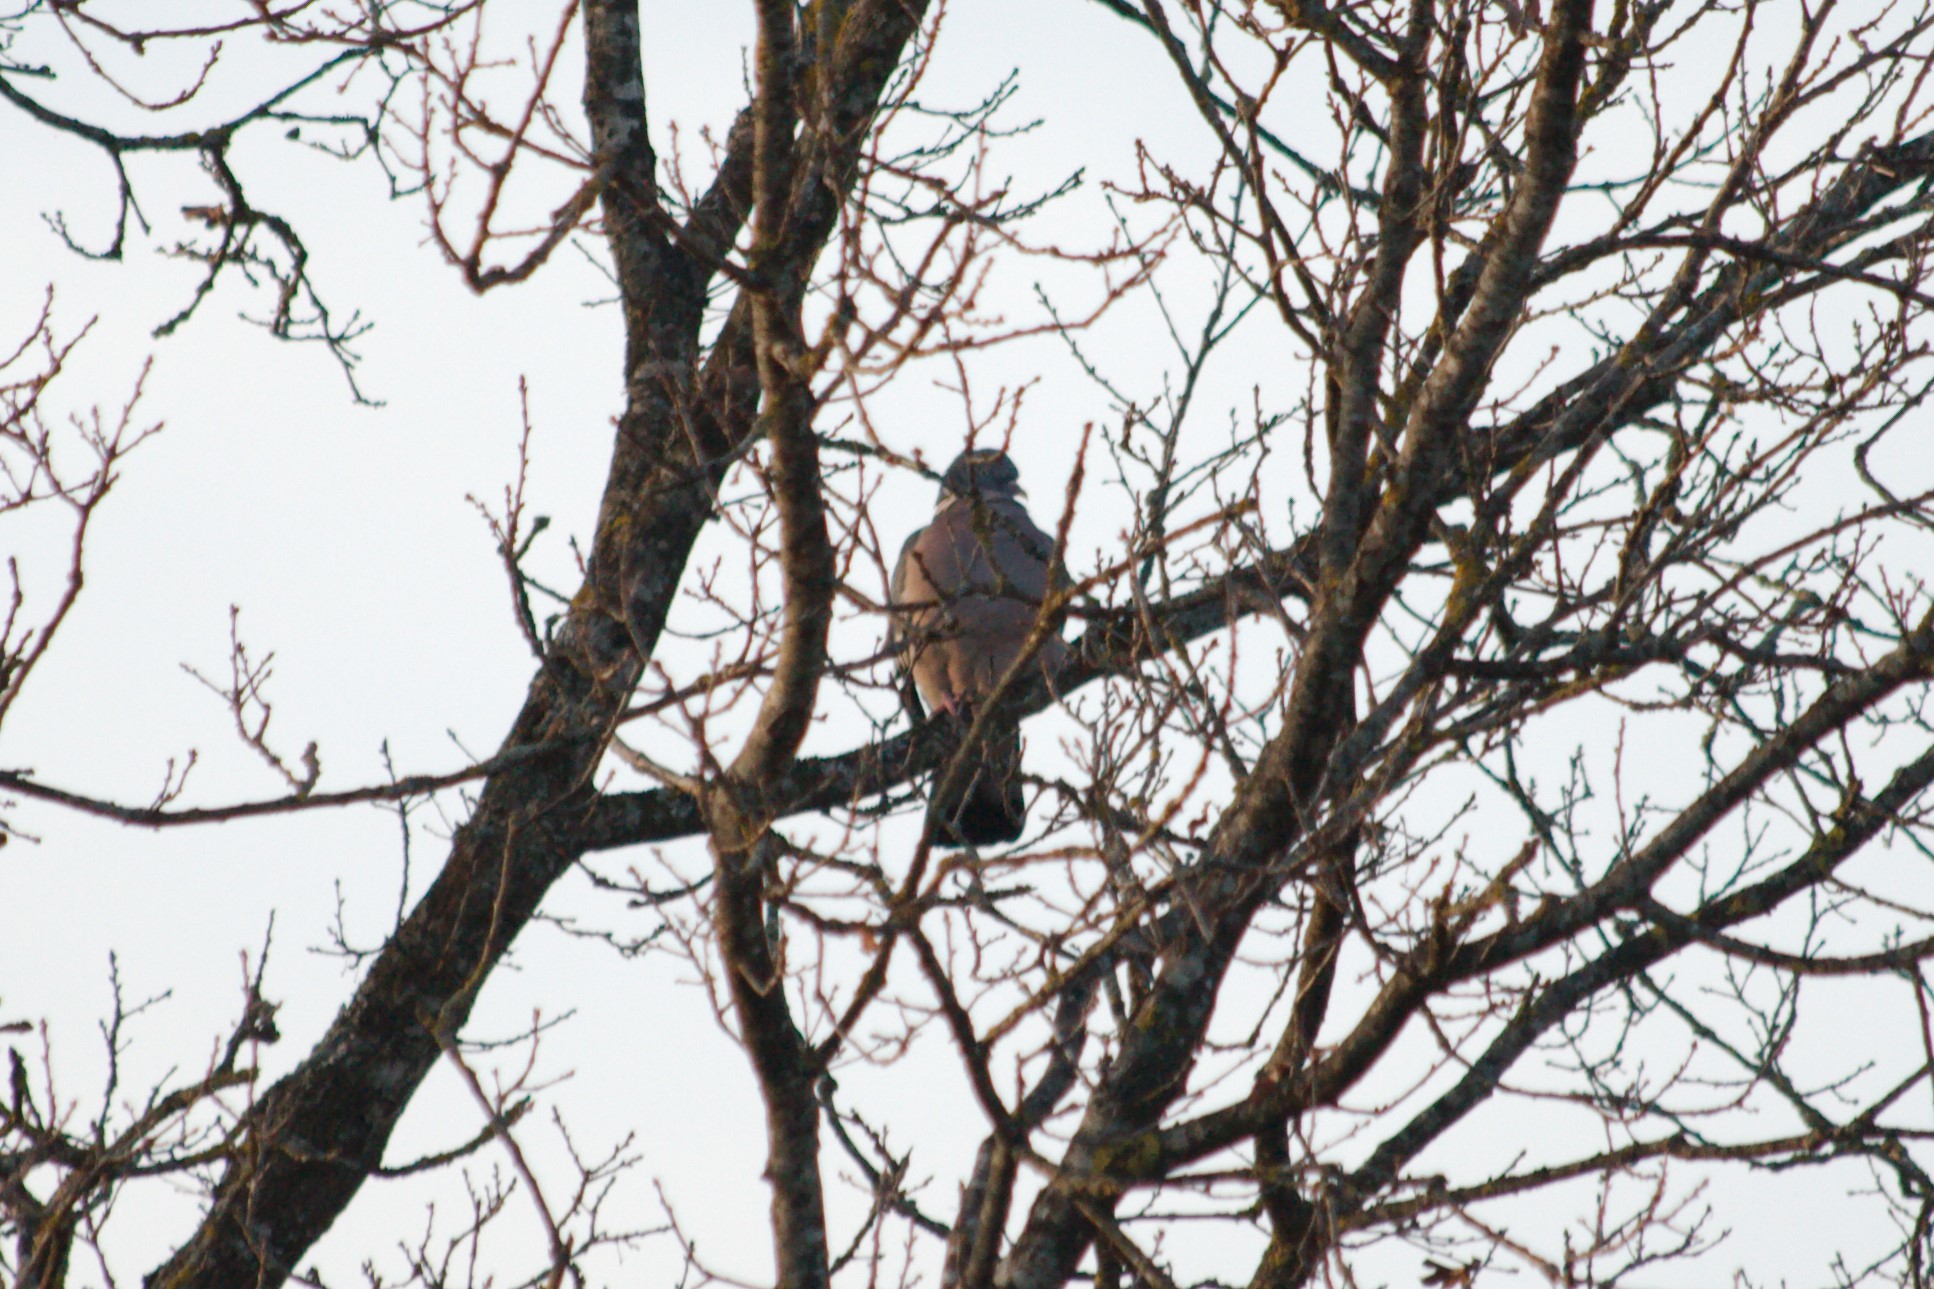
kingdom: Animalia
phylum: Chordata
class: Aves
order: Columbiformes
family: Columbidae
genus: Columba
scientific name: Columba palumbus
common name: Common wood pigeon
